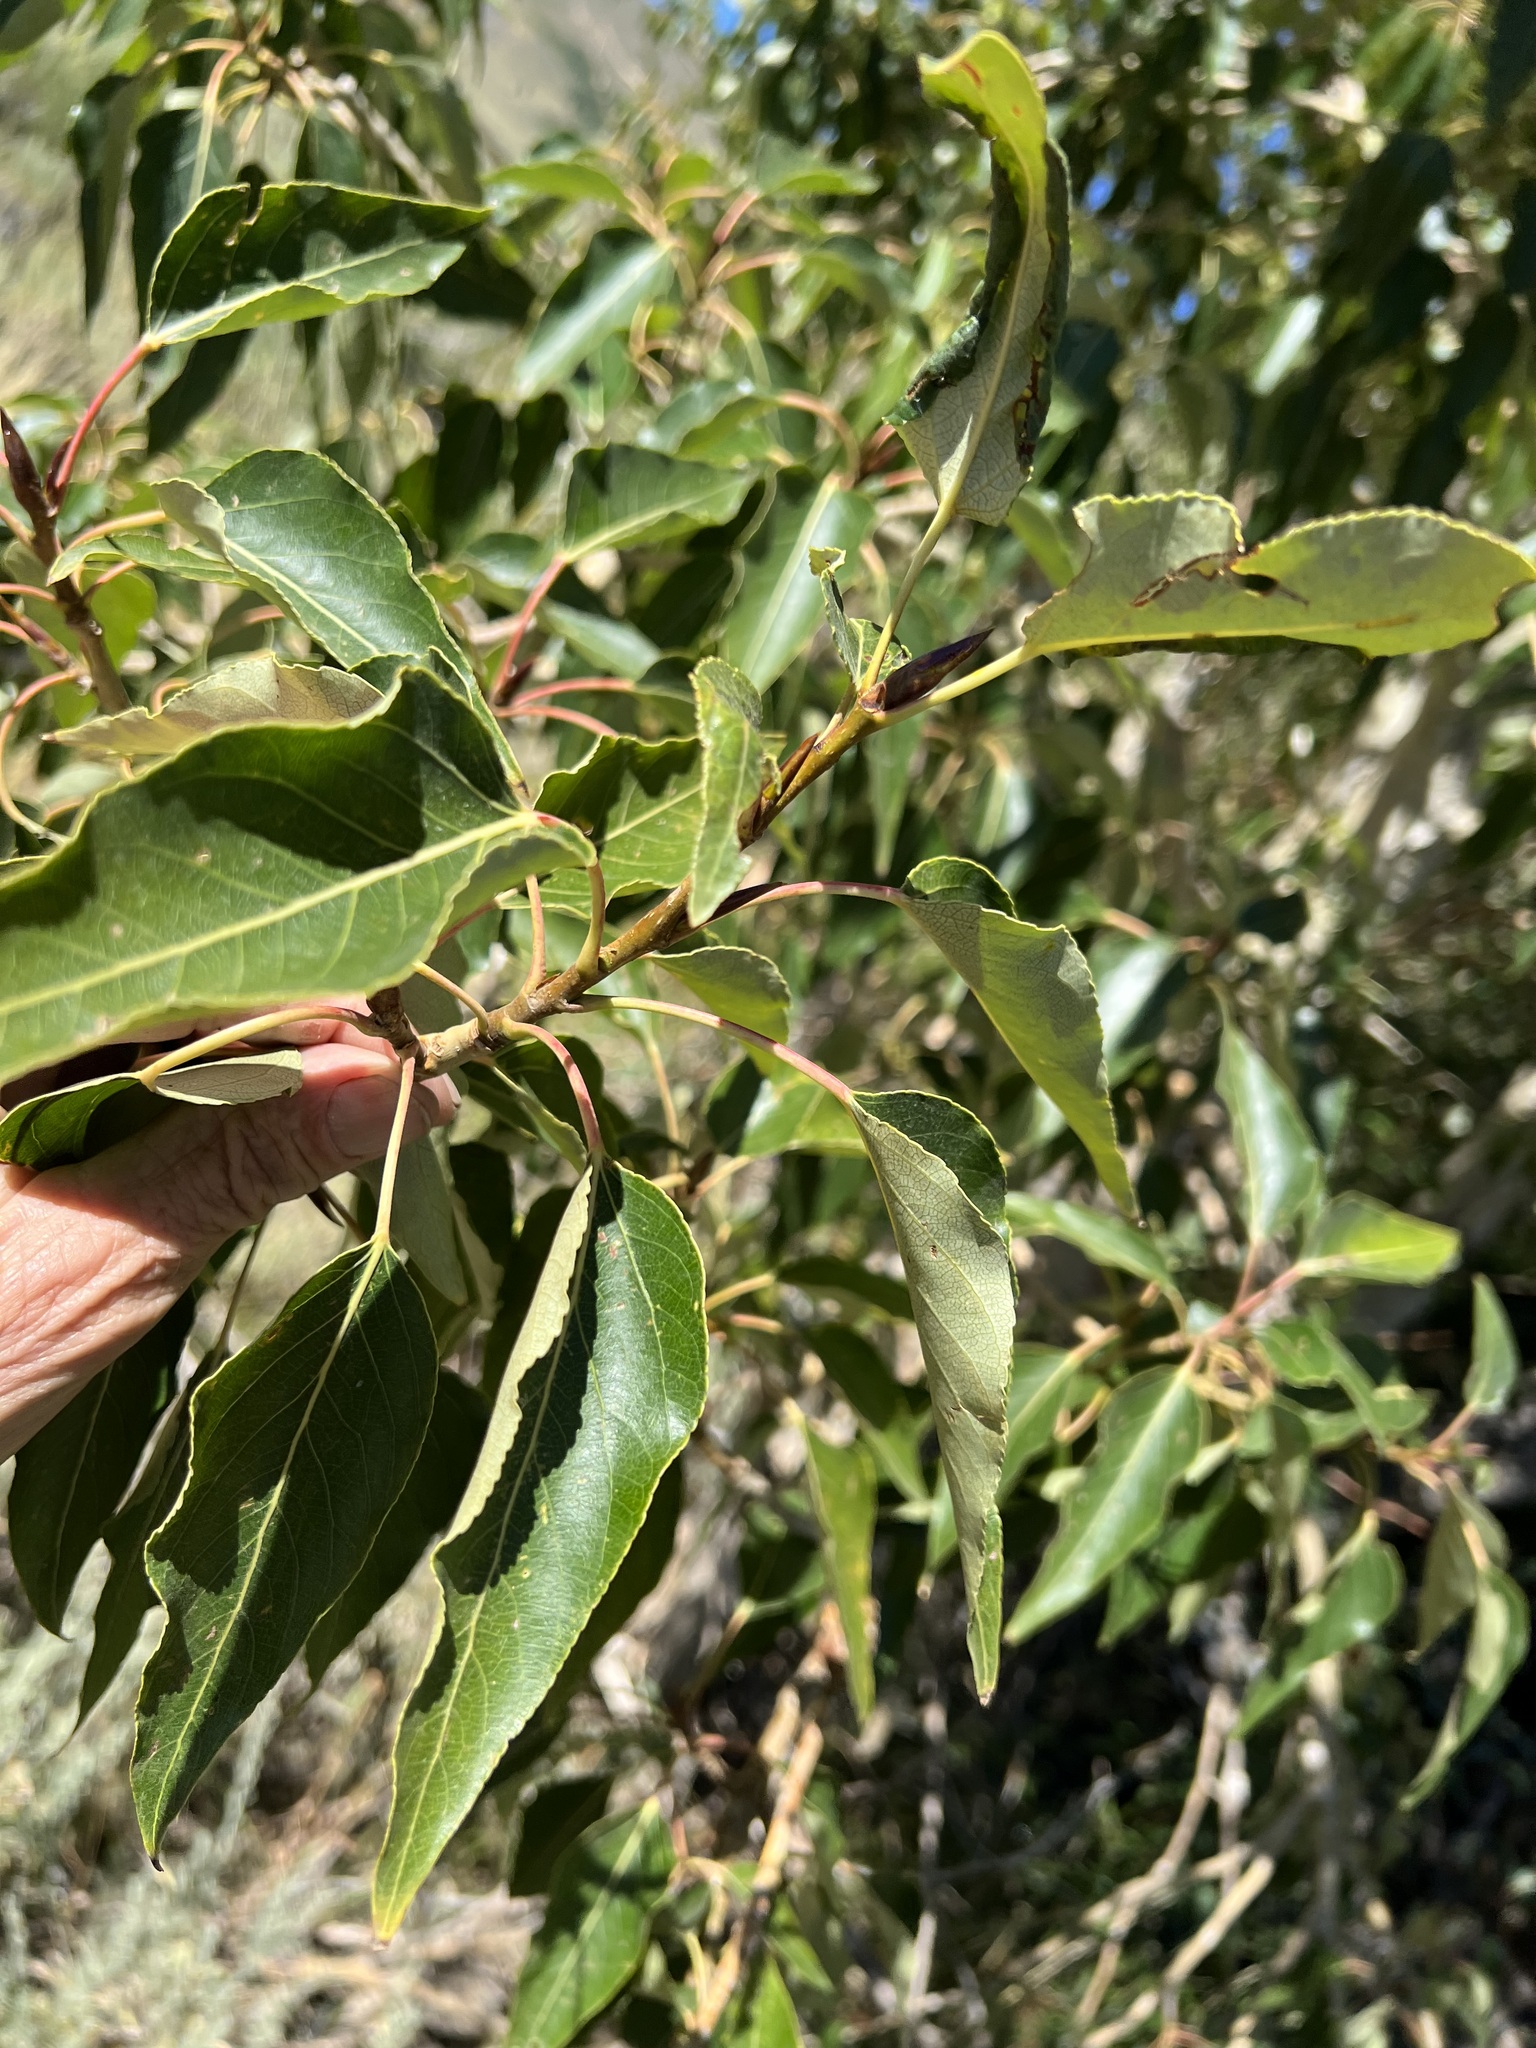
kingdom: Plantae
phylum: Tracheophyta
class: Magnoliopsida
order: Malpighiales
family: Salicaceae
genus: Populus
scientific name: Populus trichocarpa
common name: Black cottonwood
